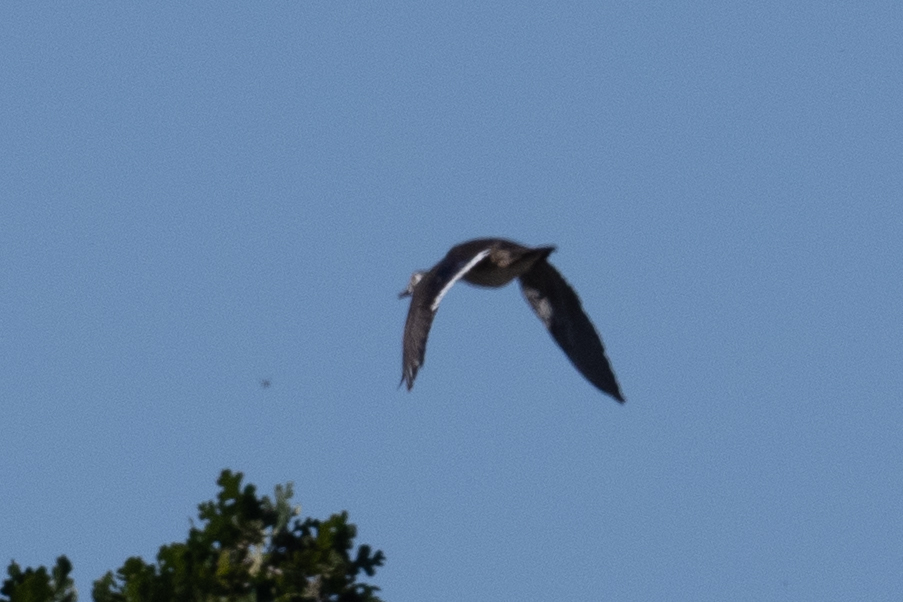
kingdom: Animalia
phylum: Chordata
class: Aves
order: Anseriformes
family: Anatidae
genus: Aix
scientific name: Aix sponsa
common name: Wood duck
